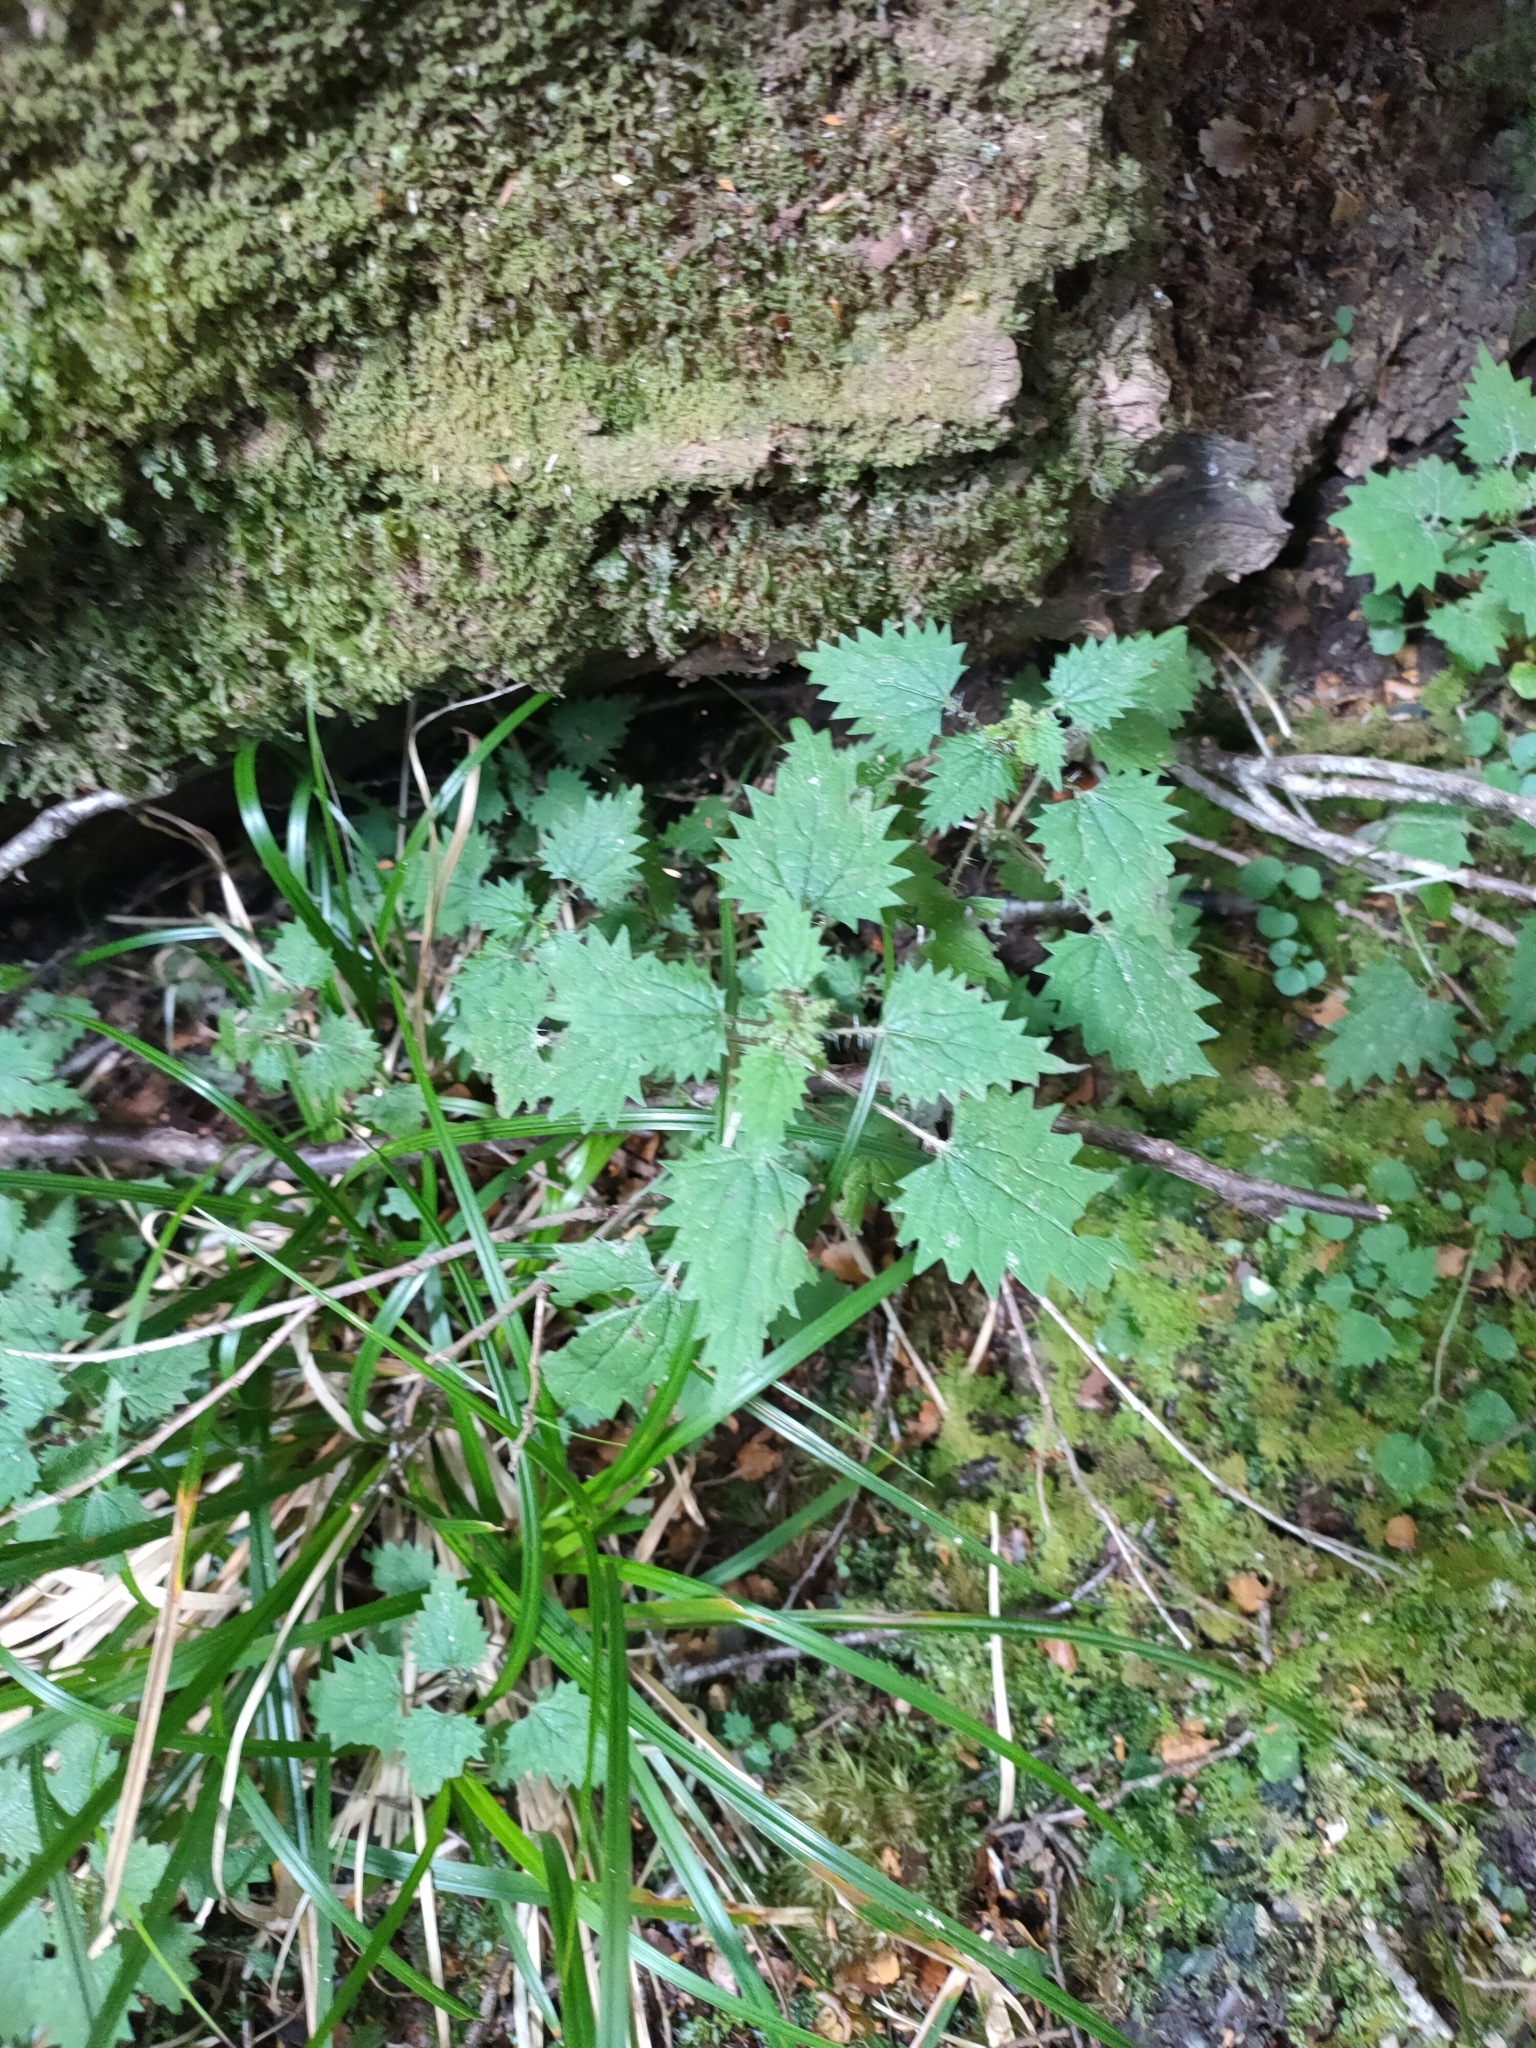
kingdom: Plantae
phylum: Tracheophyta
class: Magnoliopsida
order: Rosales
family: Urticaceae
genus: Urtica
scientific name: Urtica sykesii
